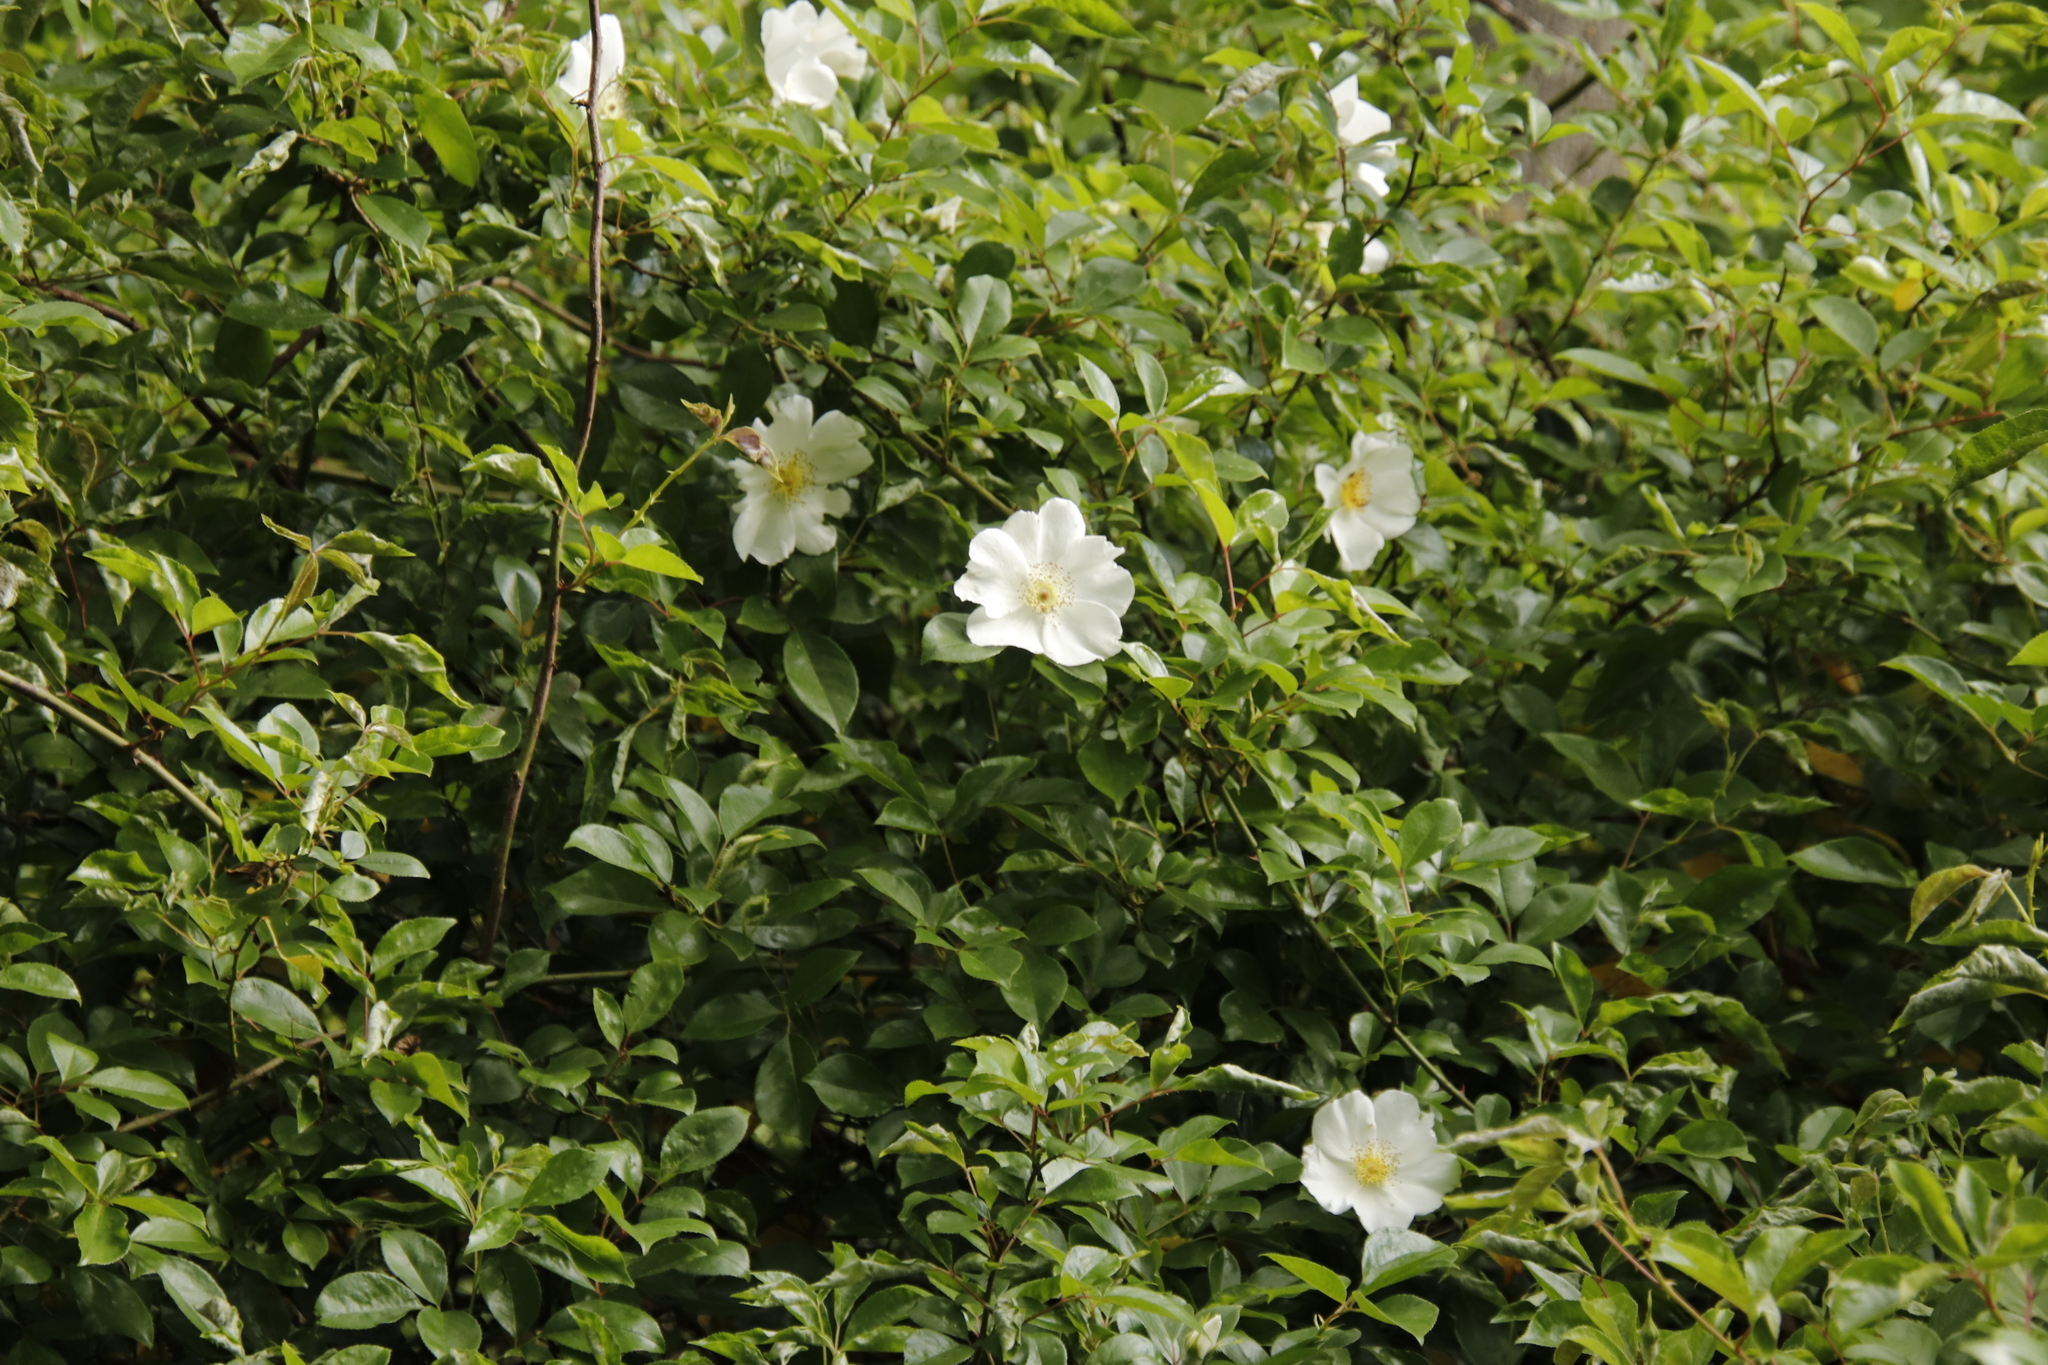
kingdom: Plantae
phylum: Tracheophyta
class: Magnoliopsida
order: Rosales
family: Rosaceae
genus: Rosa
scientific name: Rosa laevigata
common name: Cherokee rose
